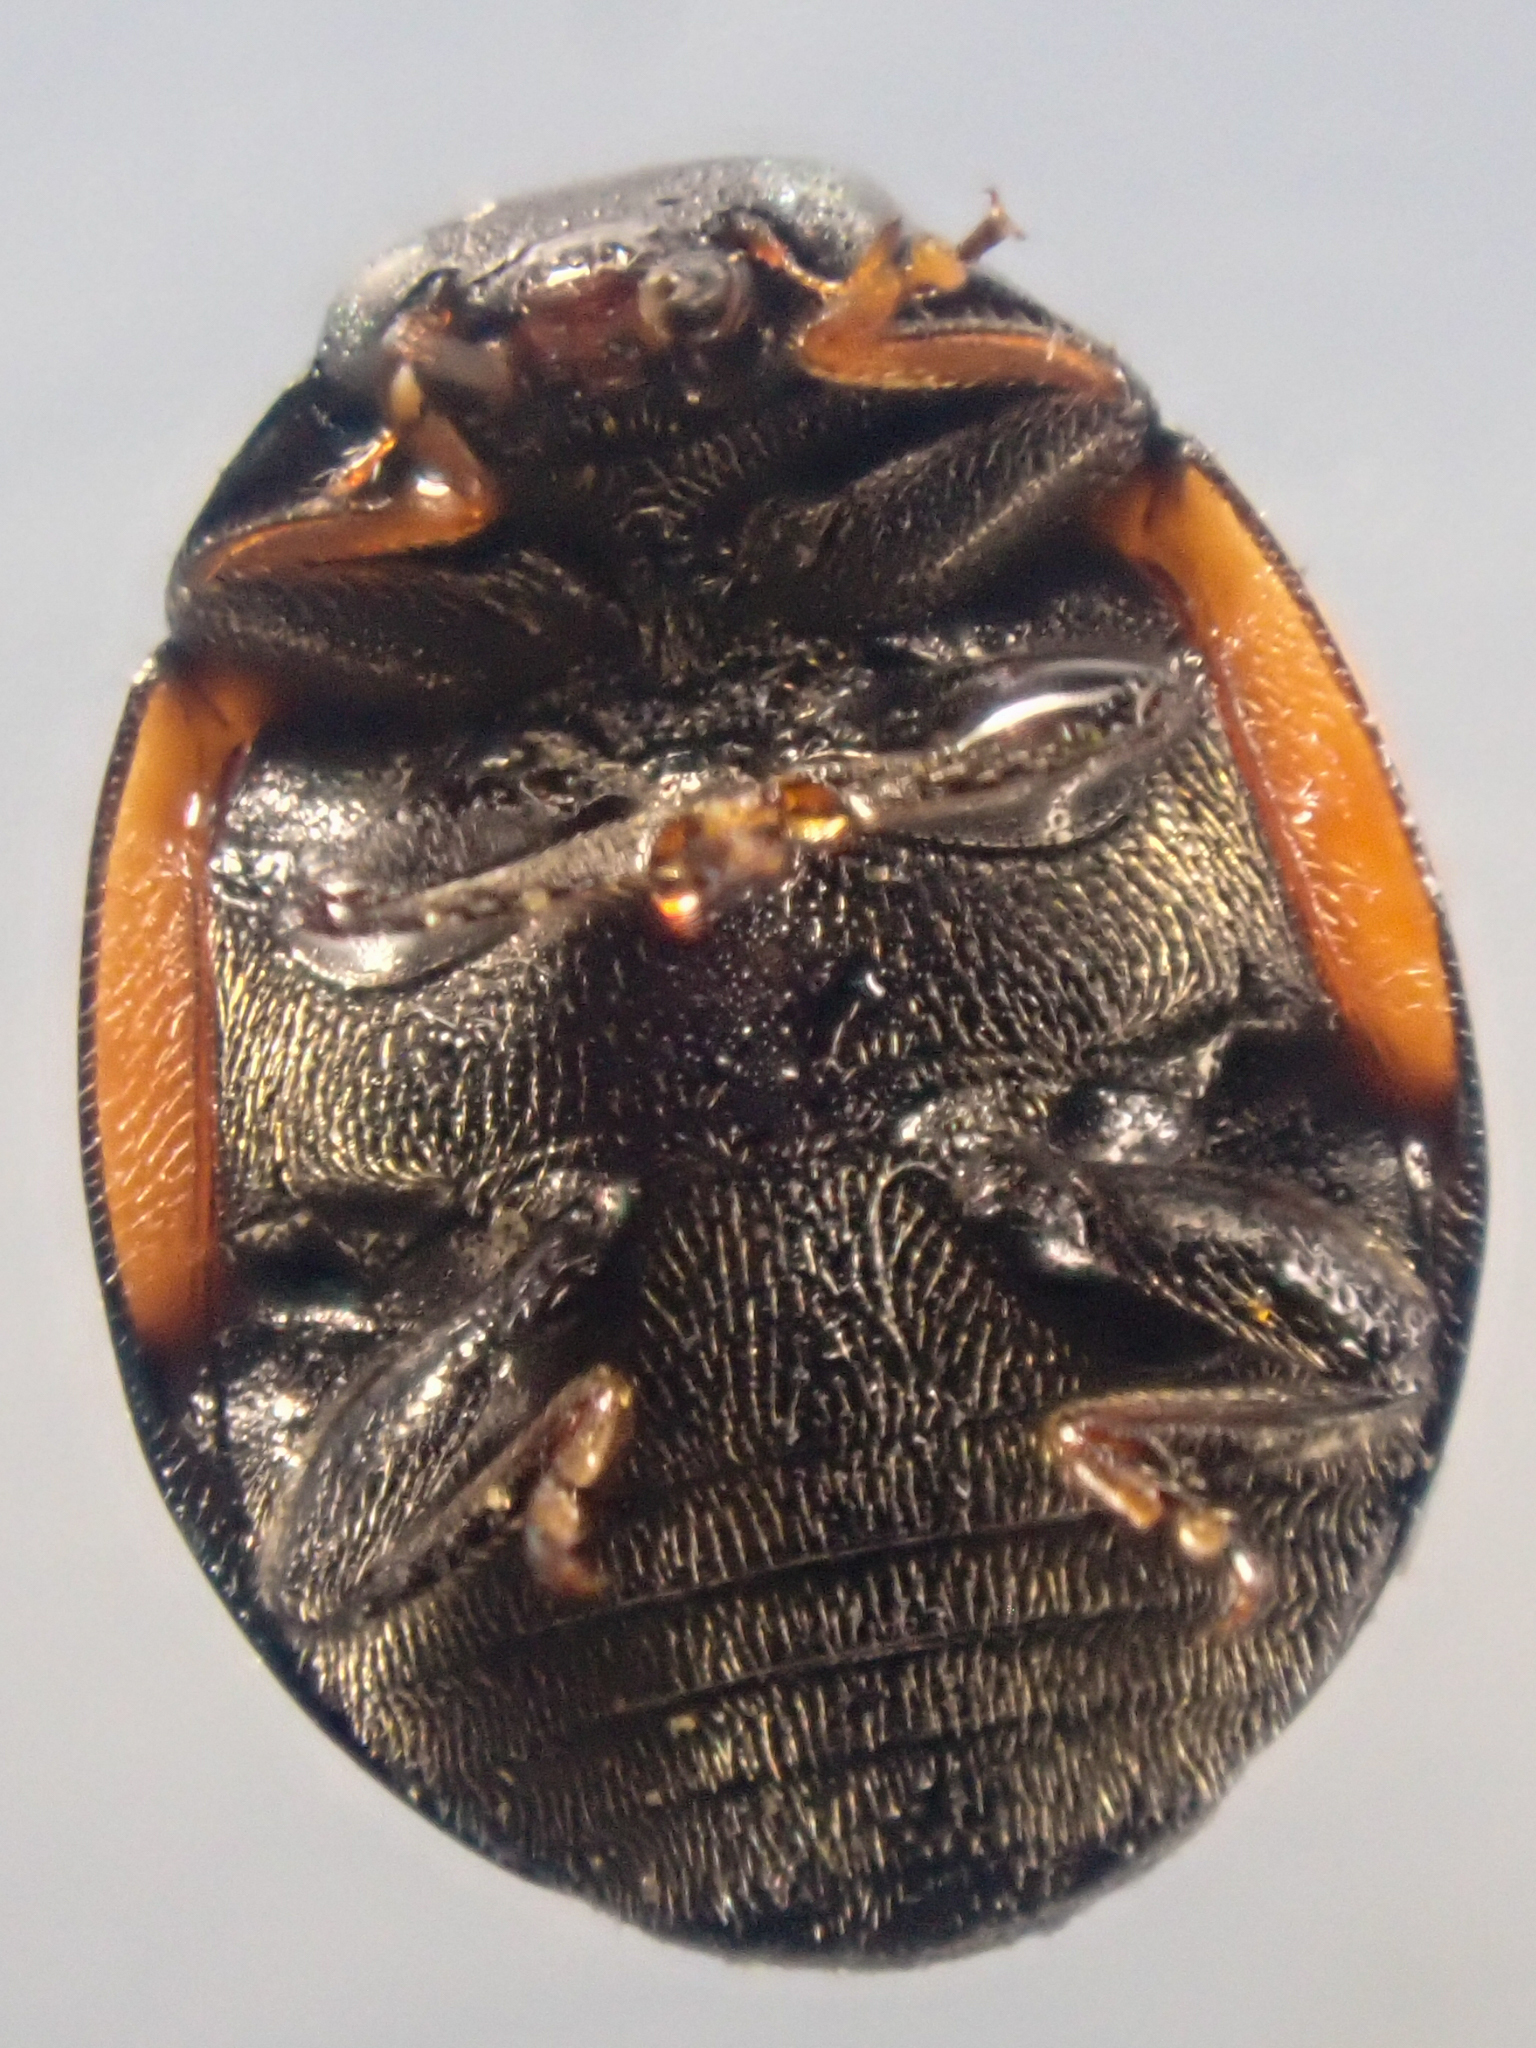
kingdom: Animalia
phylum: Arthropoda
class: Insecta
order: Coleoptera
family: Coccinellidae
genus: Hyperaspis
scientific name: Hyperaspis lateralis
